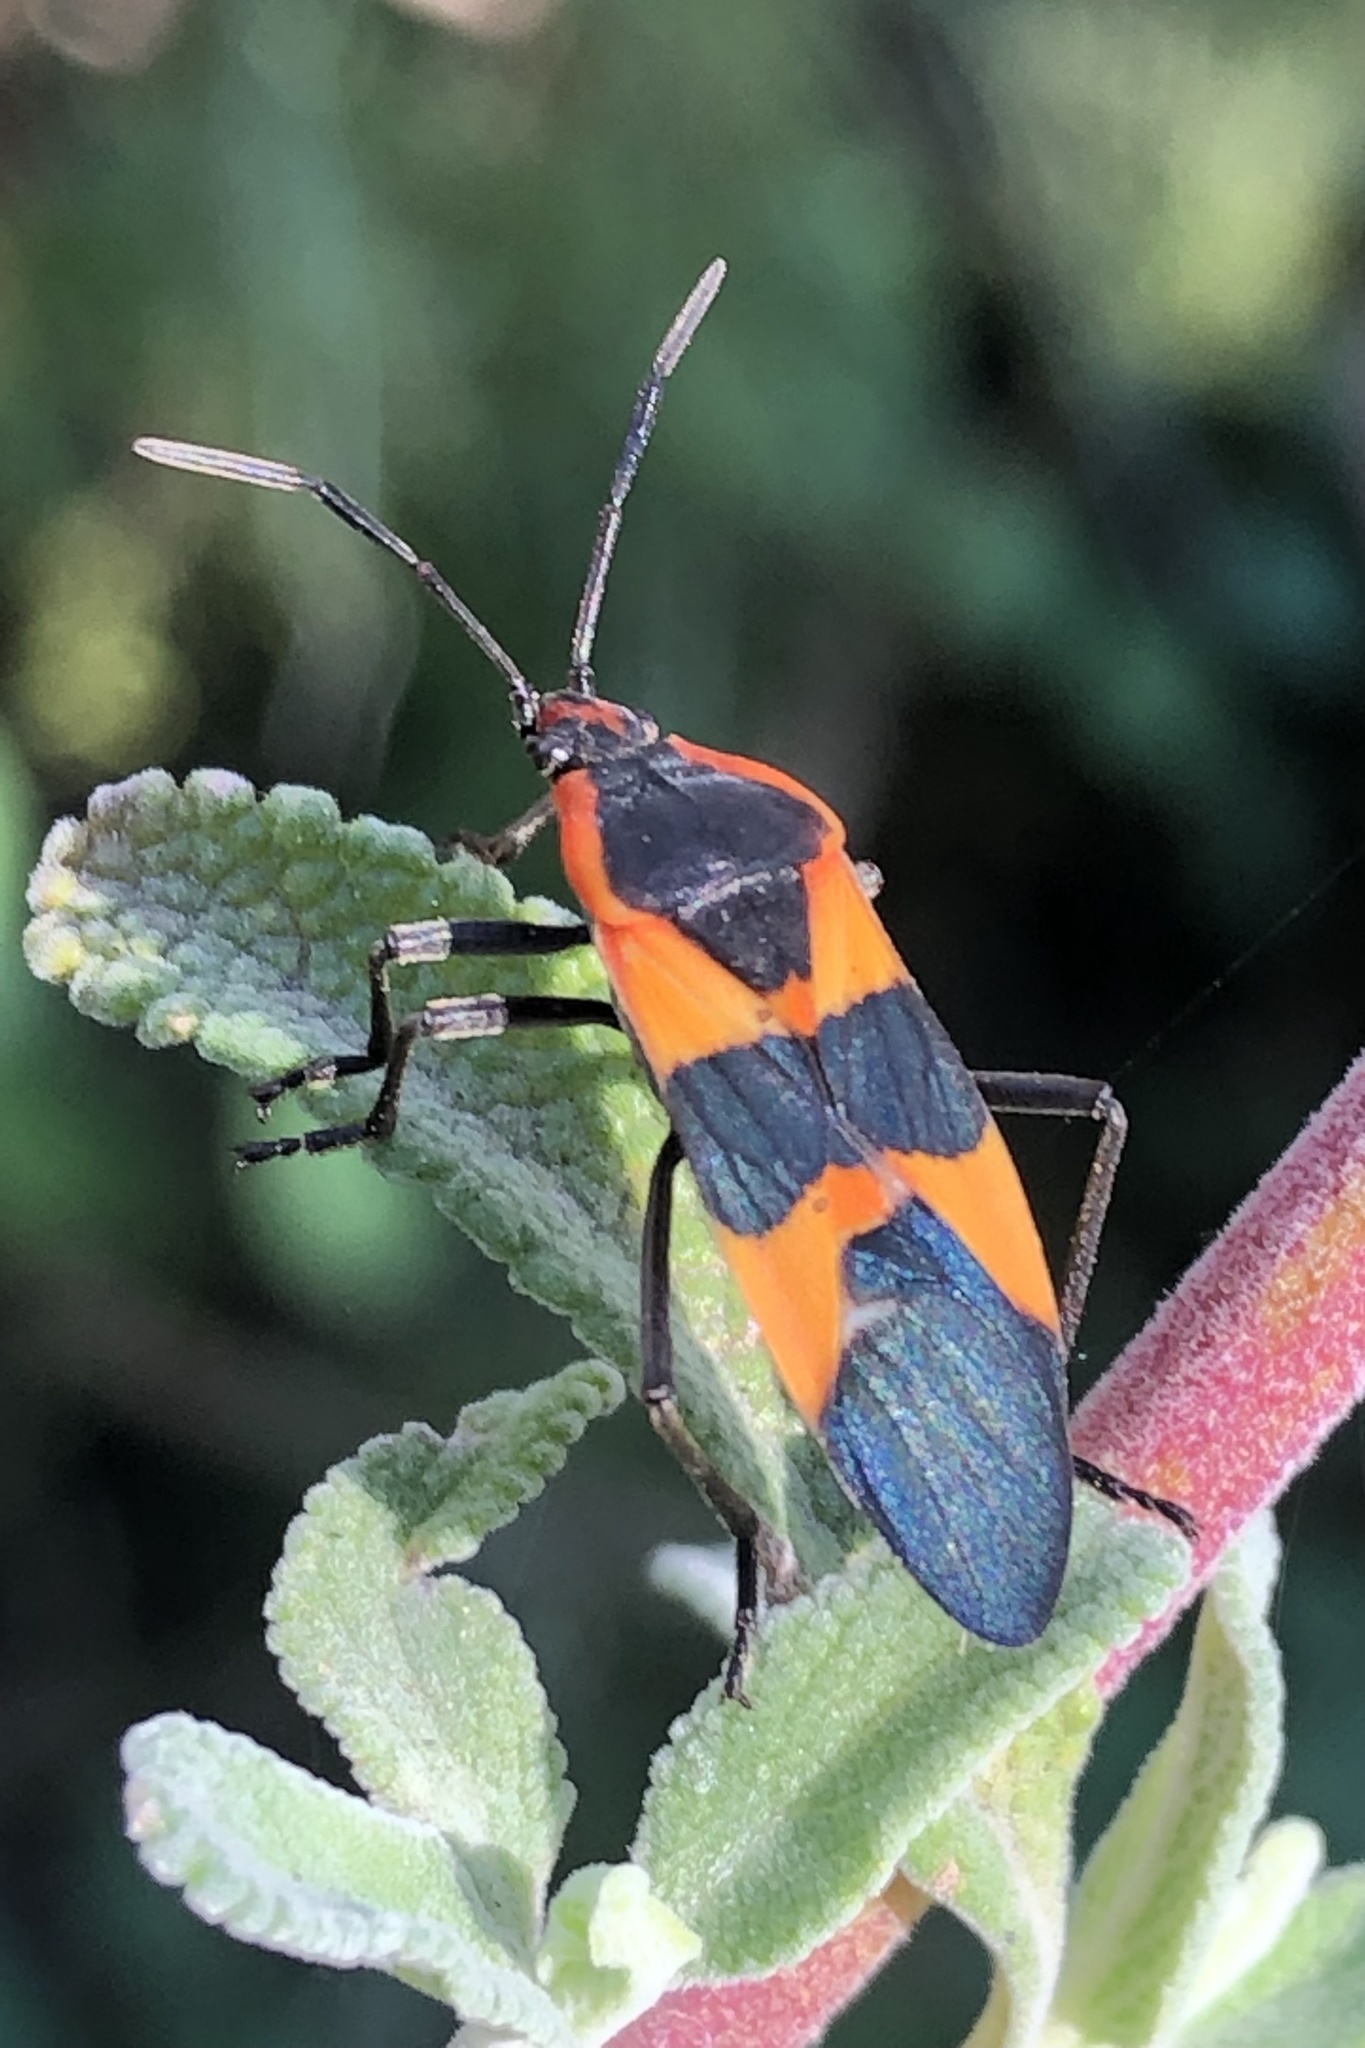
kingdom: Animalia
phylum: Arthropoda
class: Insecta
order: Hemiptera
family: Lygaeidae
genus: Oncopeltus
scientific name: Oncopeltus fasciatus
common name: Large milkweed bug
